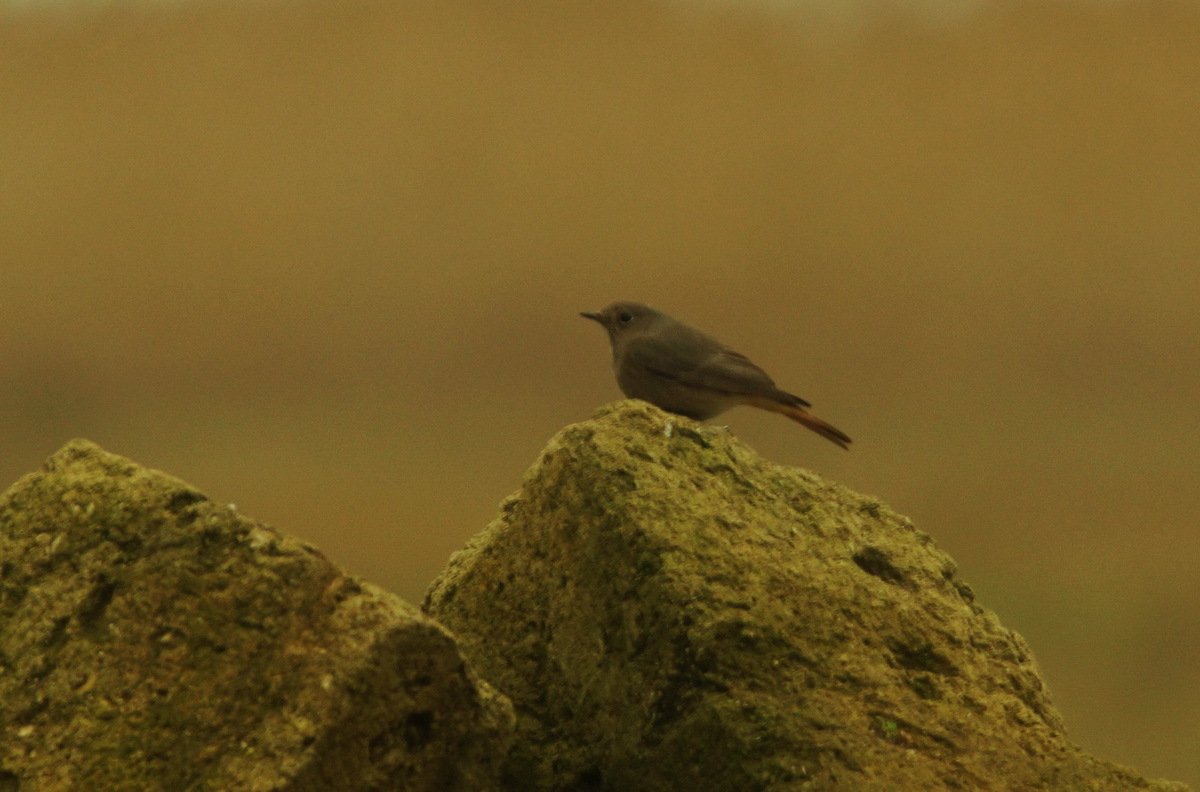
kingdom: Animalia
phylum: Chordata
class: Aves
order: Passeriformes
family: Muscicapidae
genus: Phoenicurus
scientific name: Phoenicurus ochruros
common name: Black redstart
